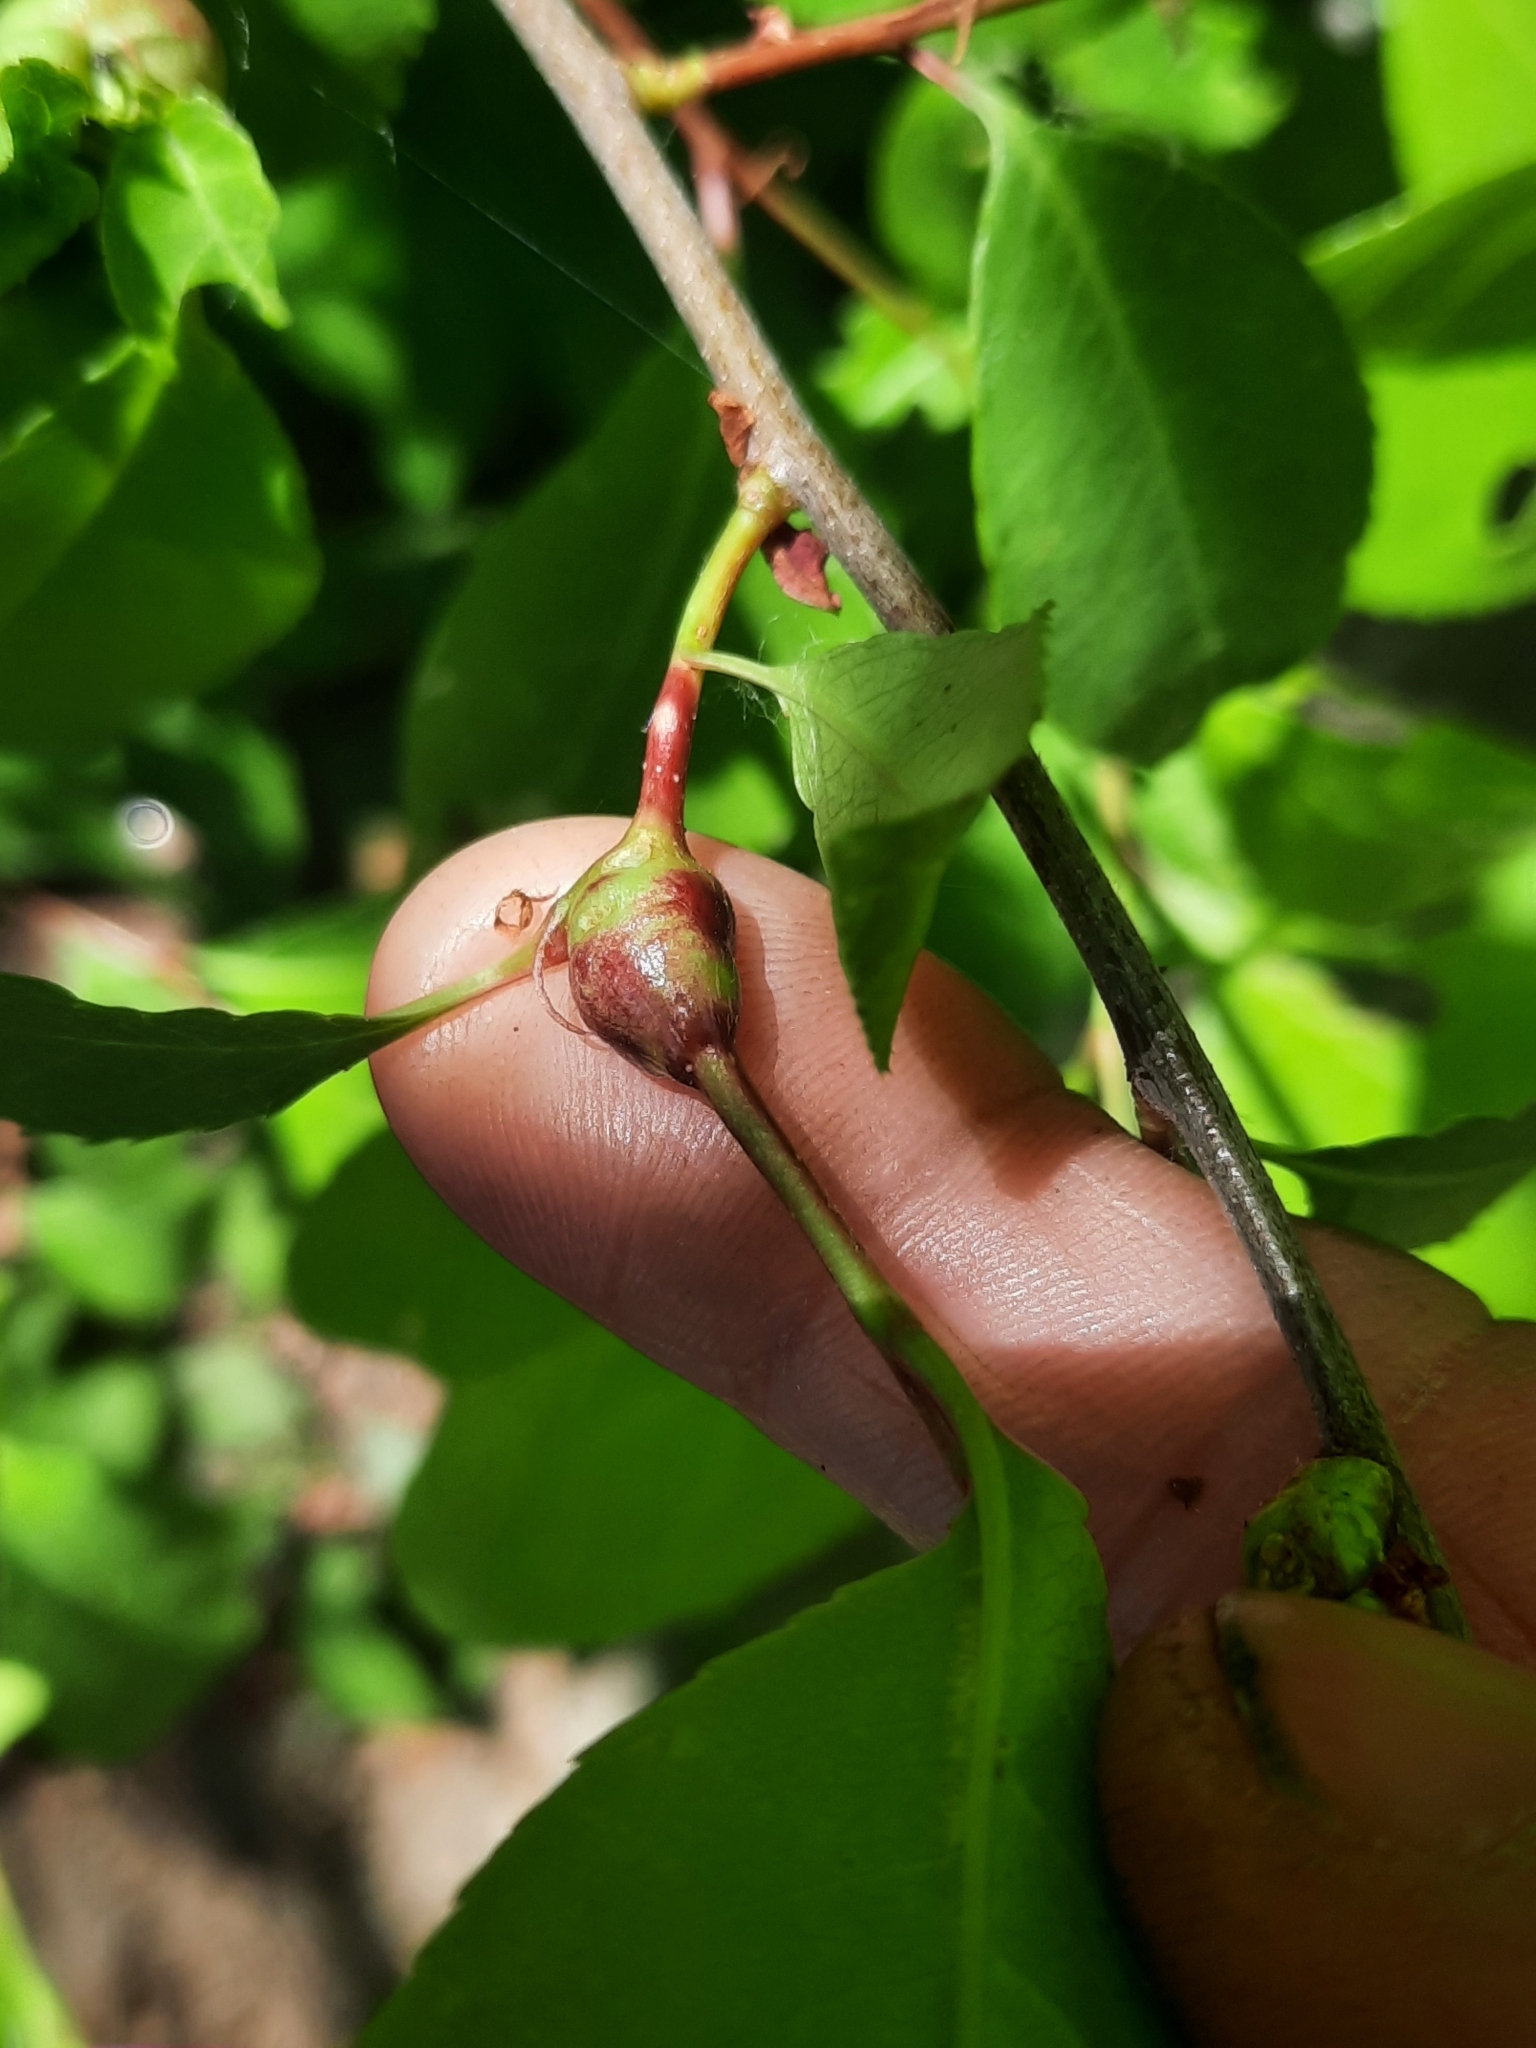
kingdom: Animalia
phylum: Arthropoda
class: Insecta
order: Diptera
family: Cecidomyiidae
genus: Contarinia
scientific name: Contarinia cerasiserotinae
